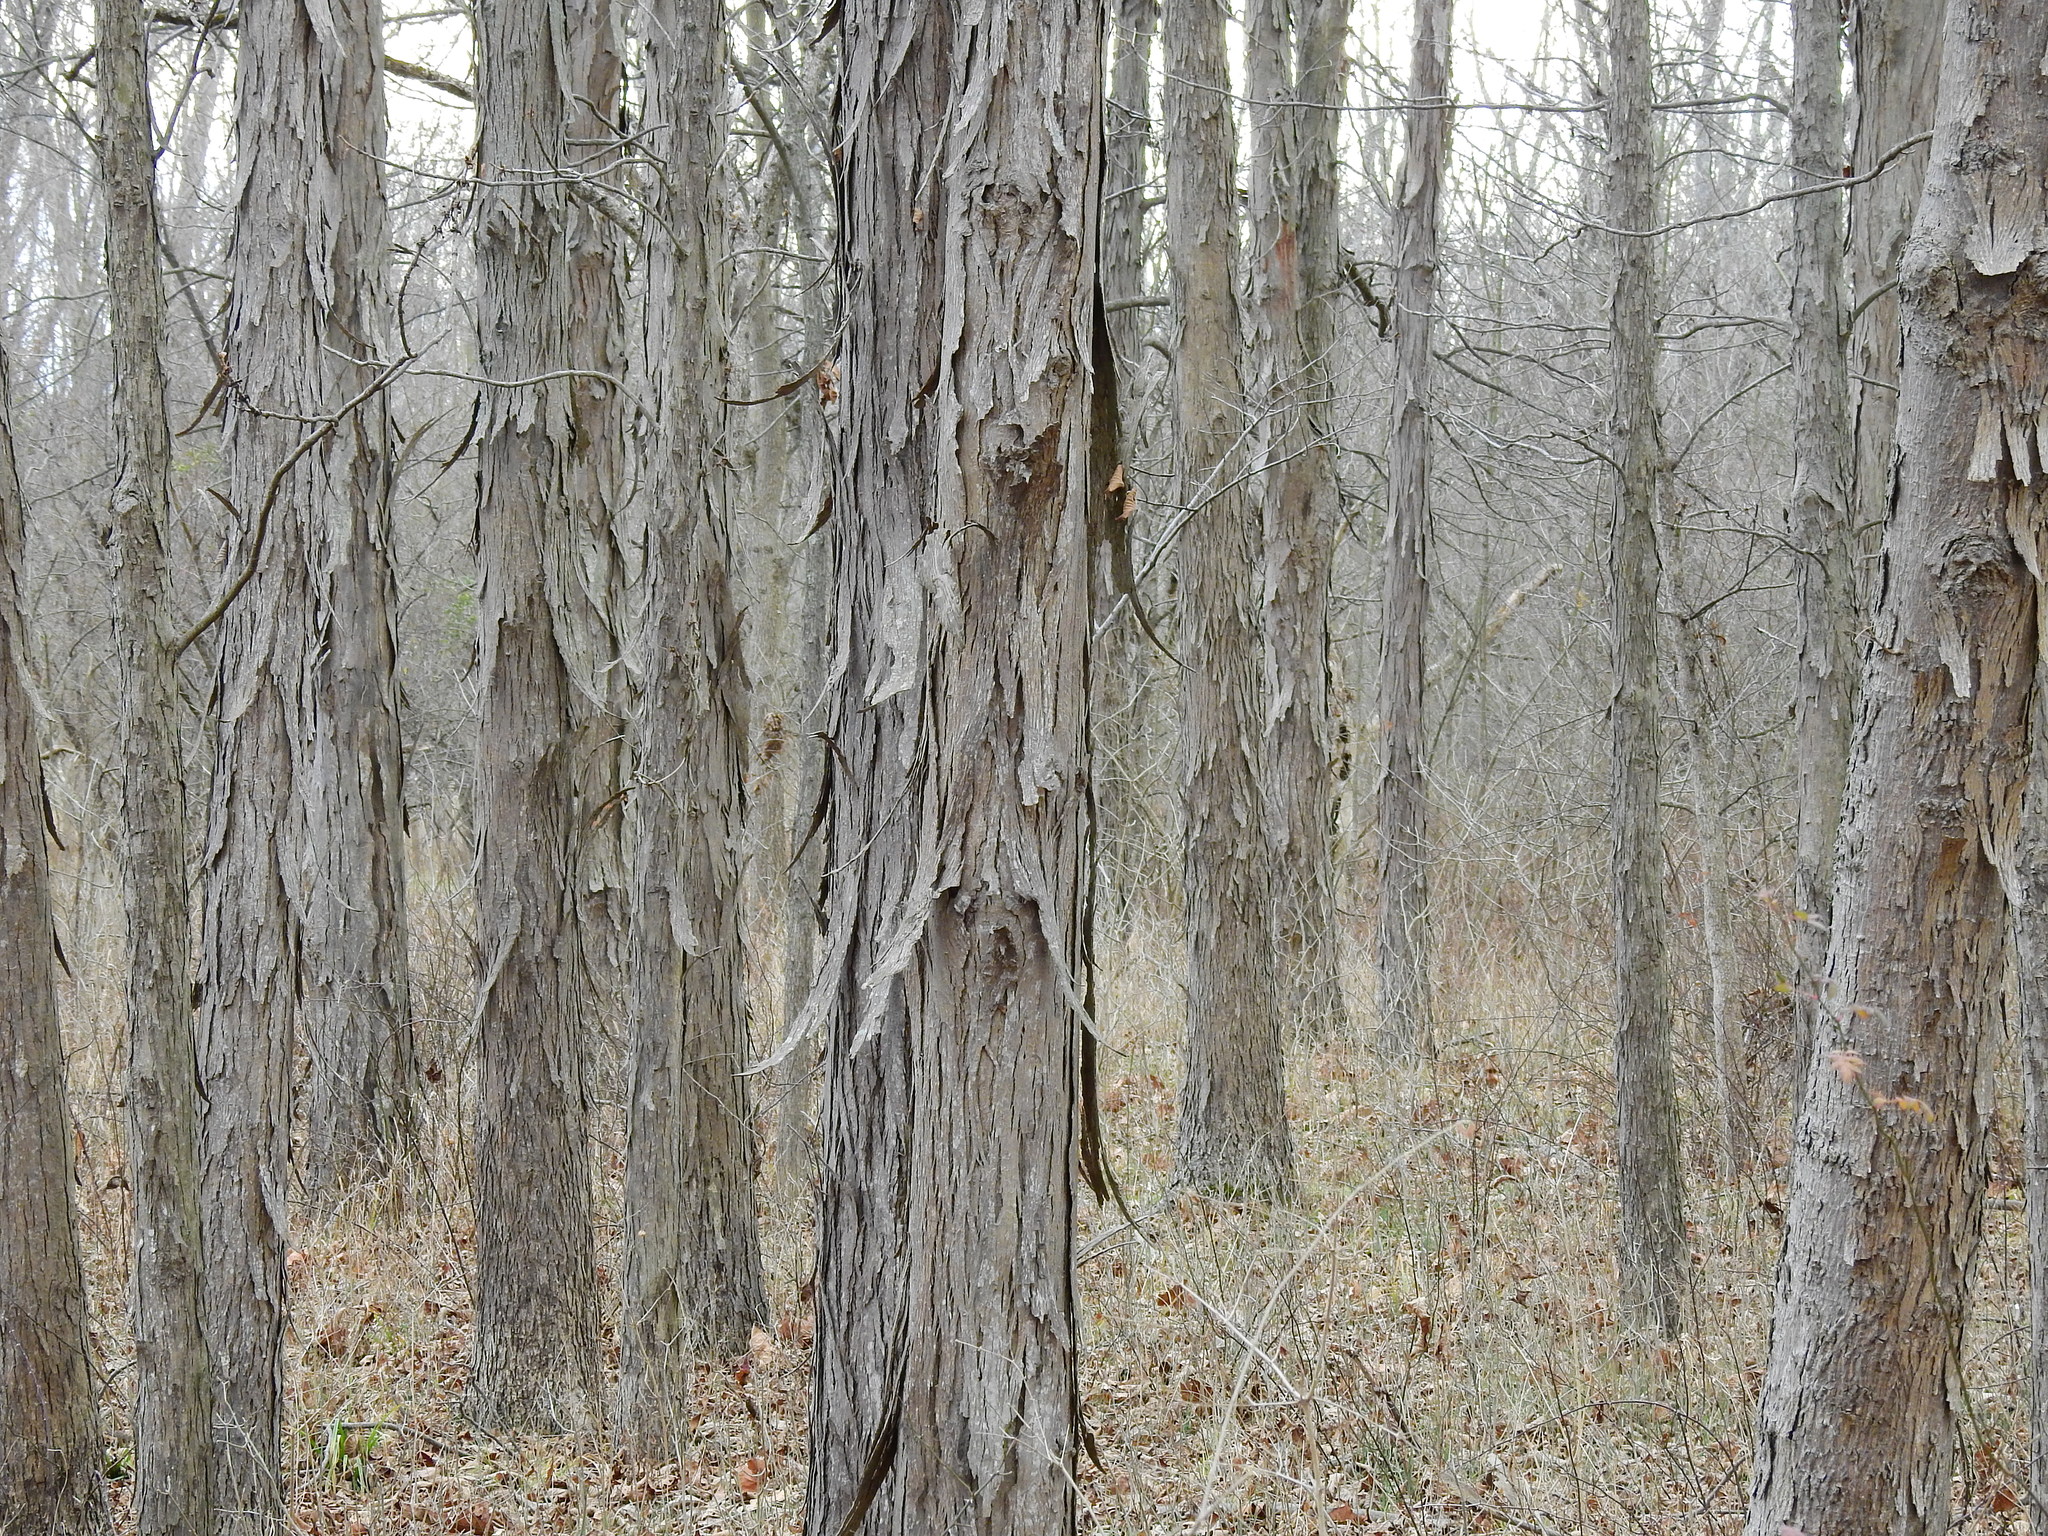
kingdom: Plantae
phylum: Tracheophyta
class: Magnoliopsida
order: Fagales
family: Juglandaceae
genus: Carya
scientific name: Carya laciniosa
